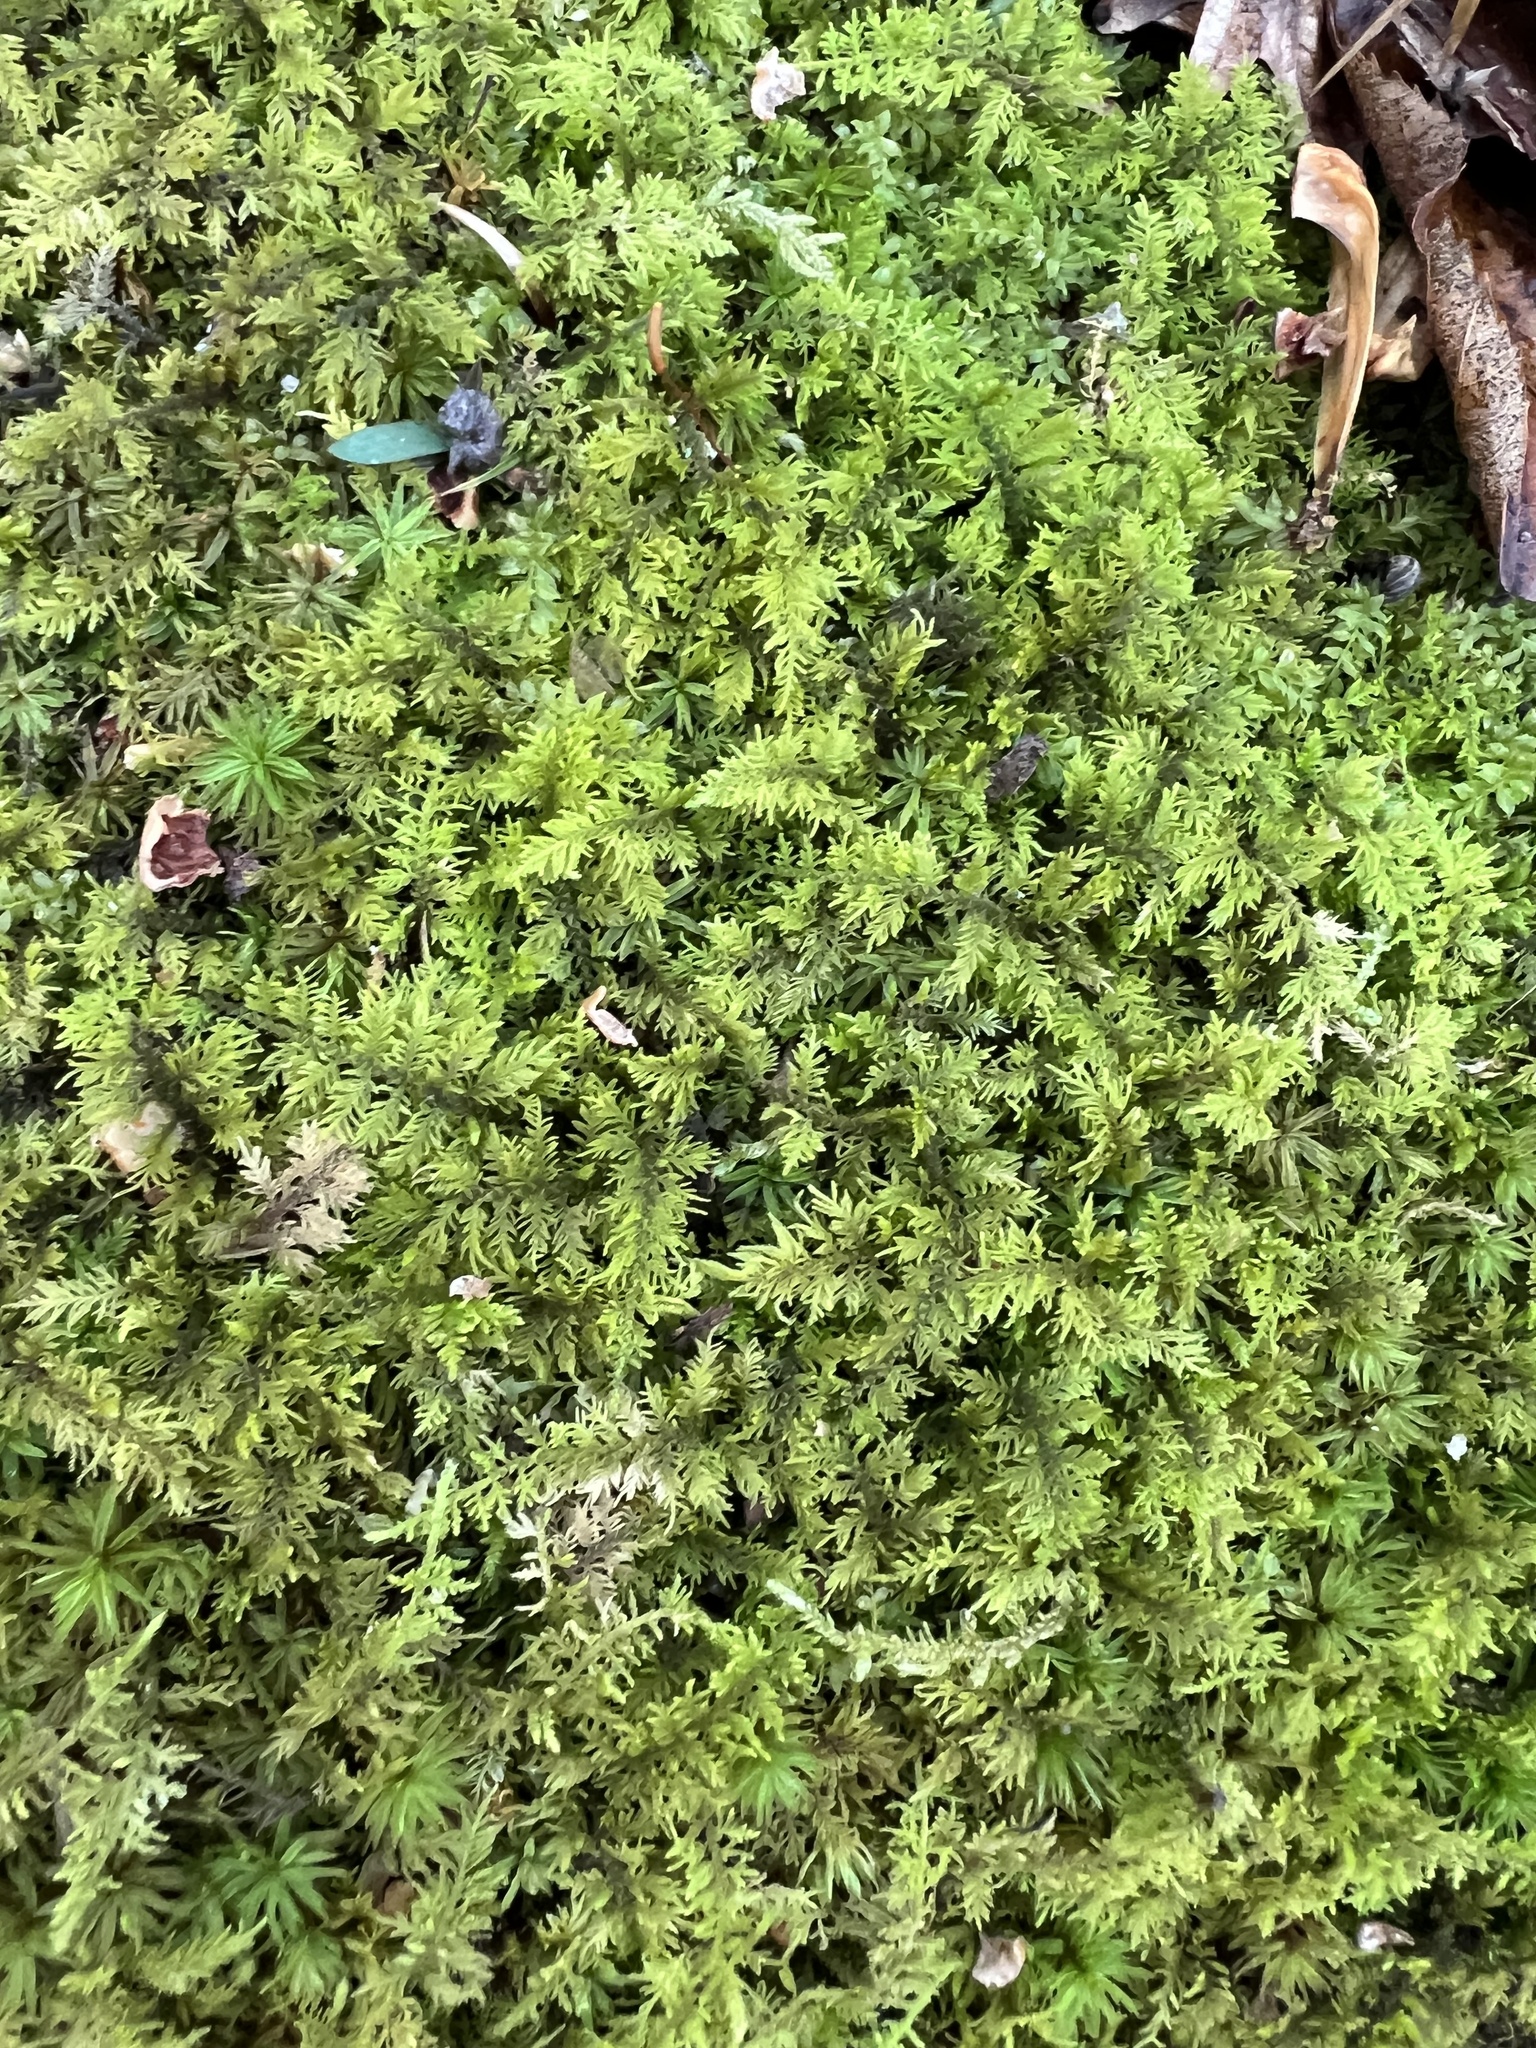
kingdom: Plantae
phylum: Bryophyta
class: Bryopsida
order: Hypnales
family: Thuidiaceae
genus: Thuidium
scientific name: Thuidium delicatulum
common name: Delicate fern moss
